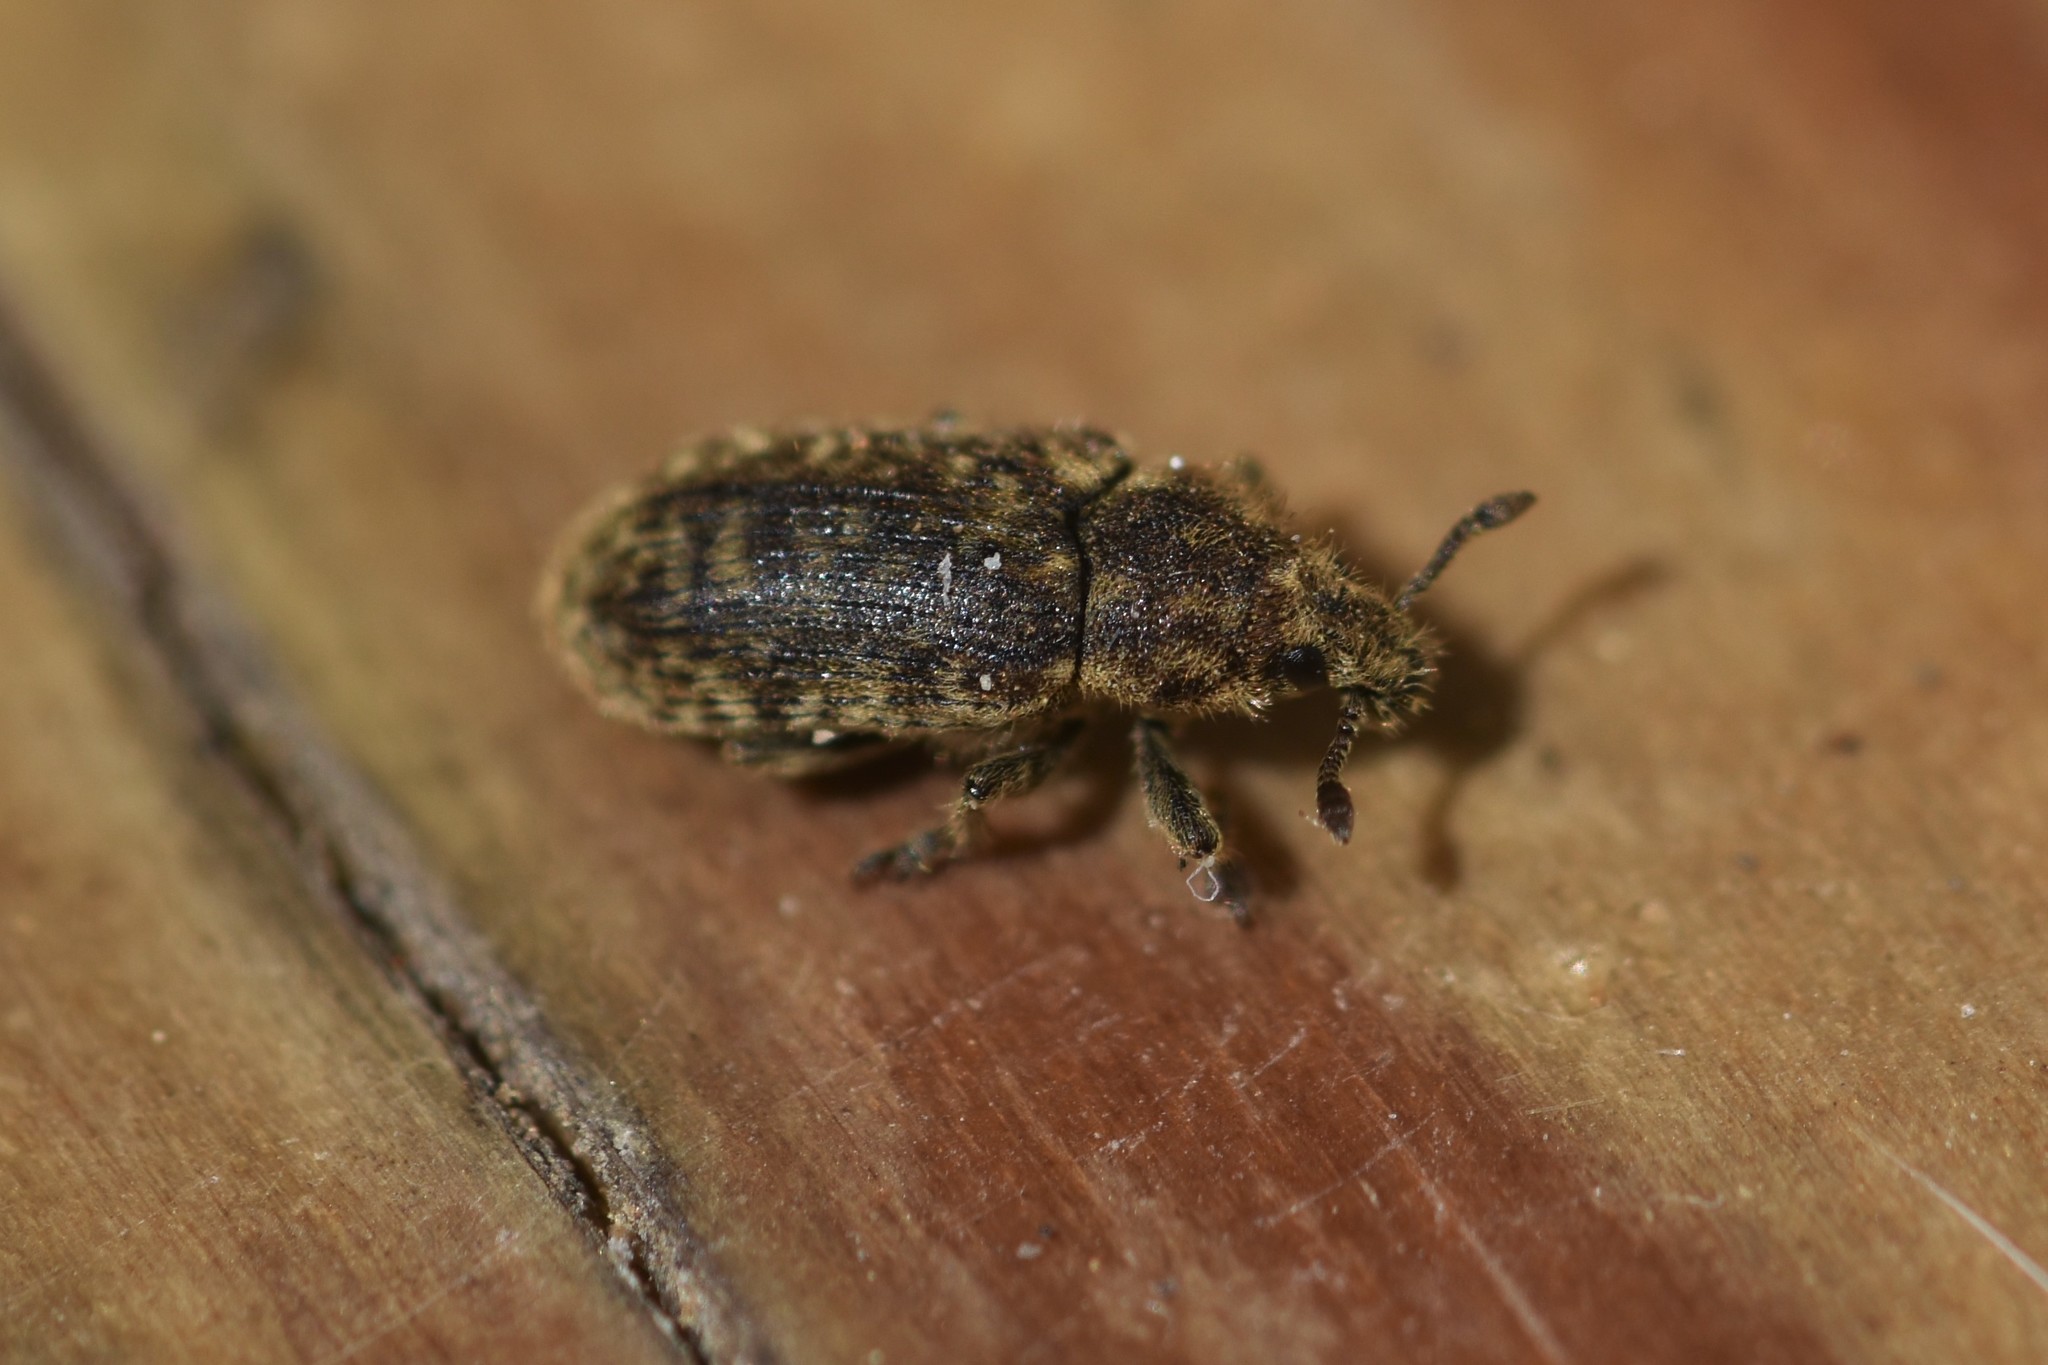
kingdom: Animalia
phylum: Arthropoda
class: Insecta
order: Coleoptera
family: Curculionidae
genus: Rhinocyllus
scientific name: Rhinocyllus conicus
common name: Weevil
